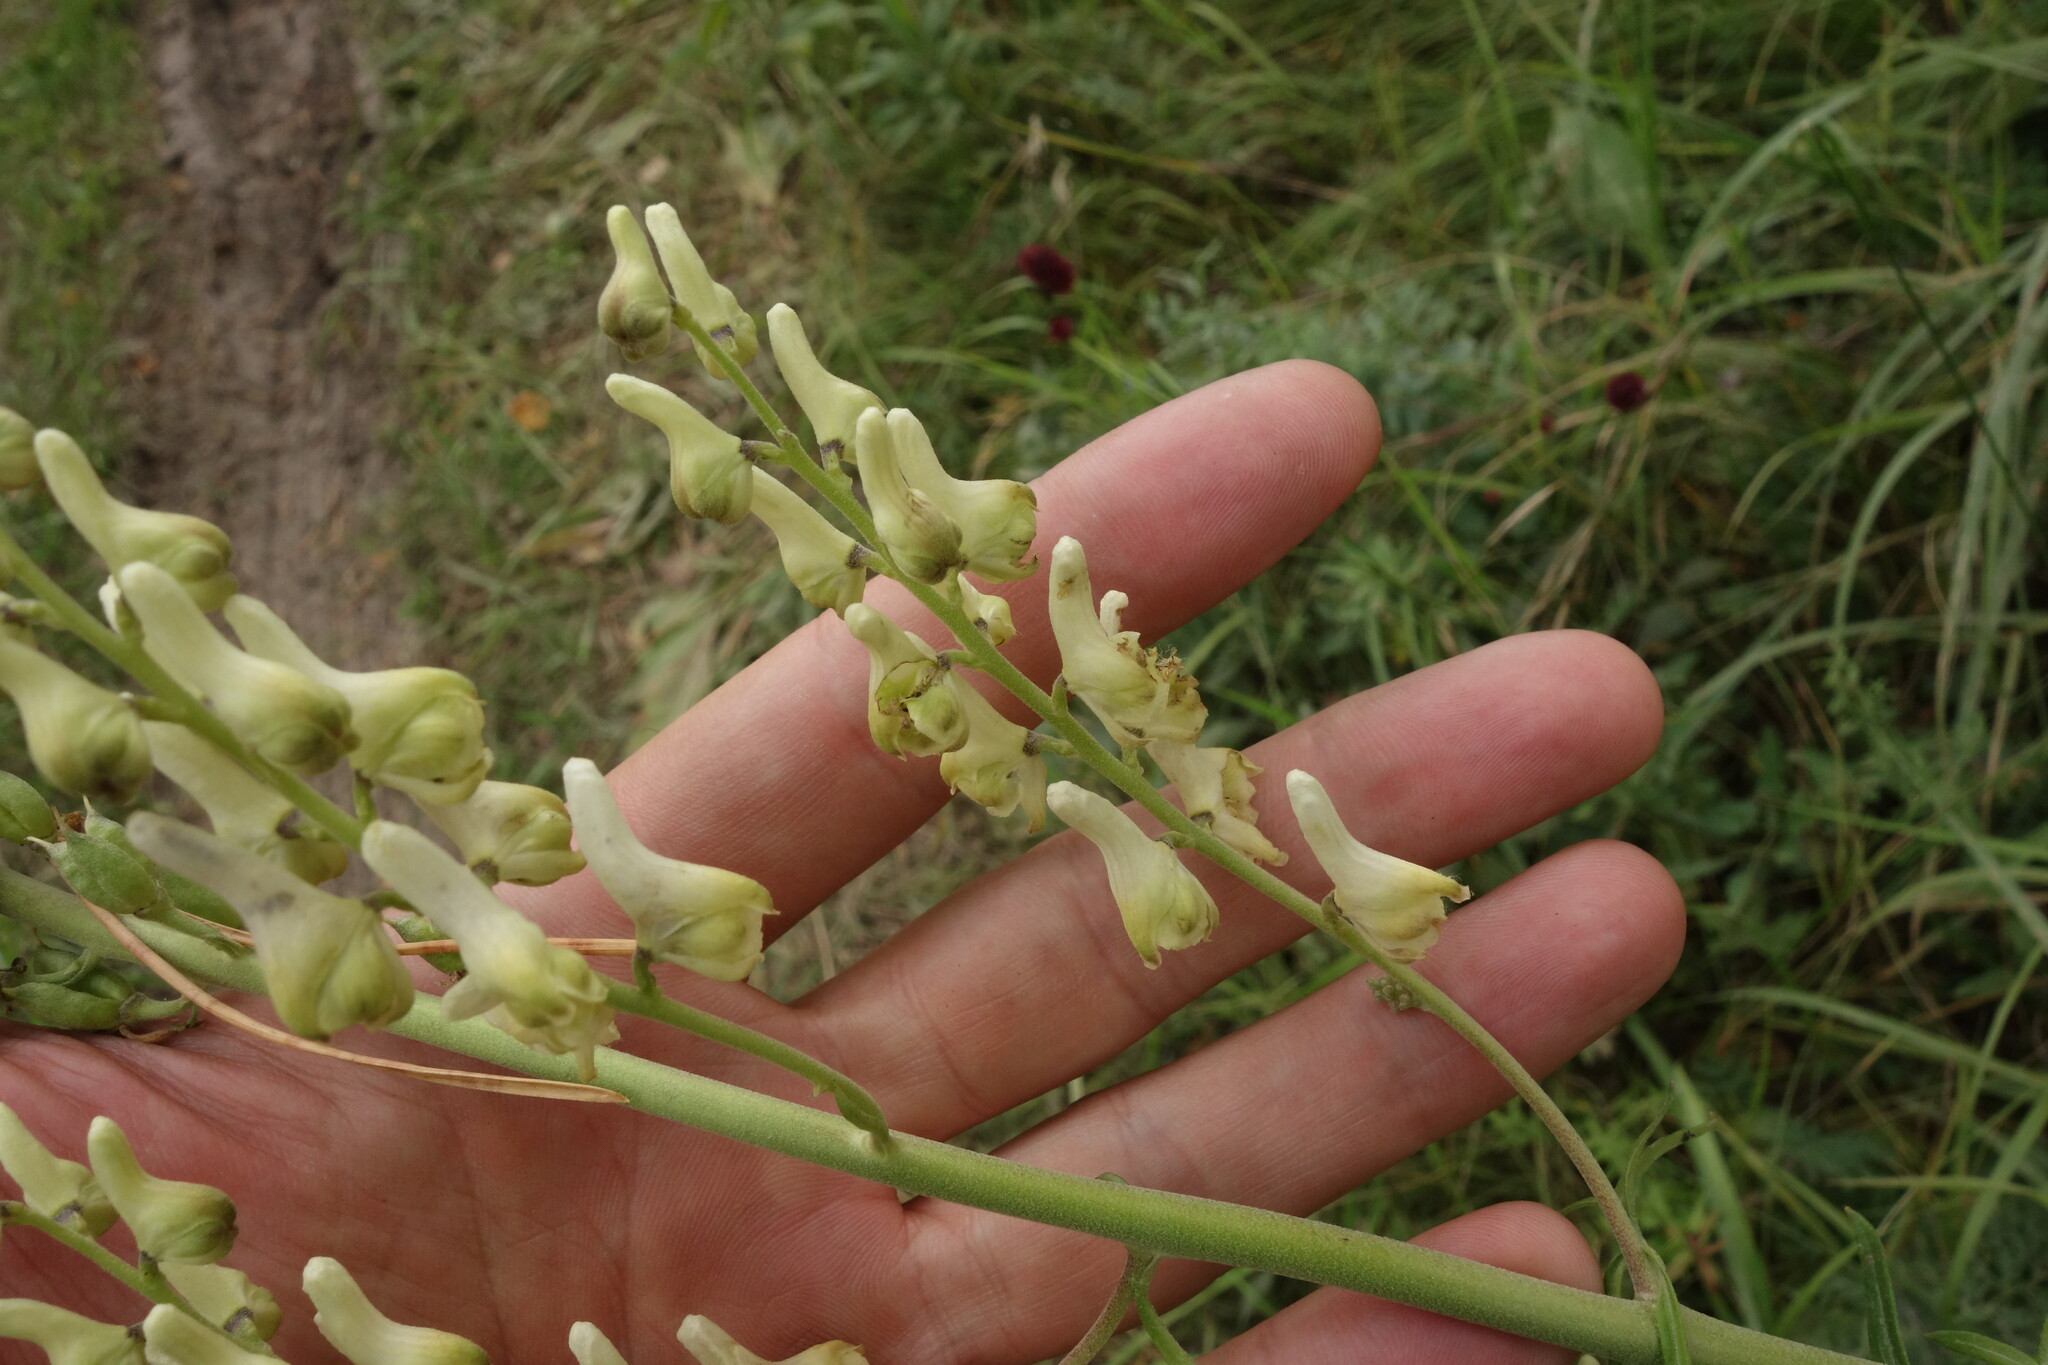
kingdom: Plantae
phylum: Tracheophyta
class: Magnoliopsida
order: Ranunculales
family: Ranunculaceae
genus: Aconitum
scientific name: Aconitum barbatum
